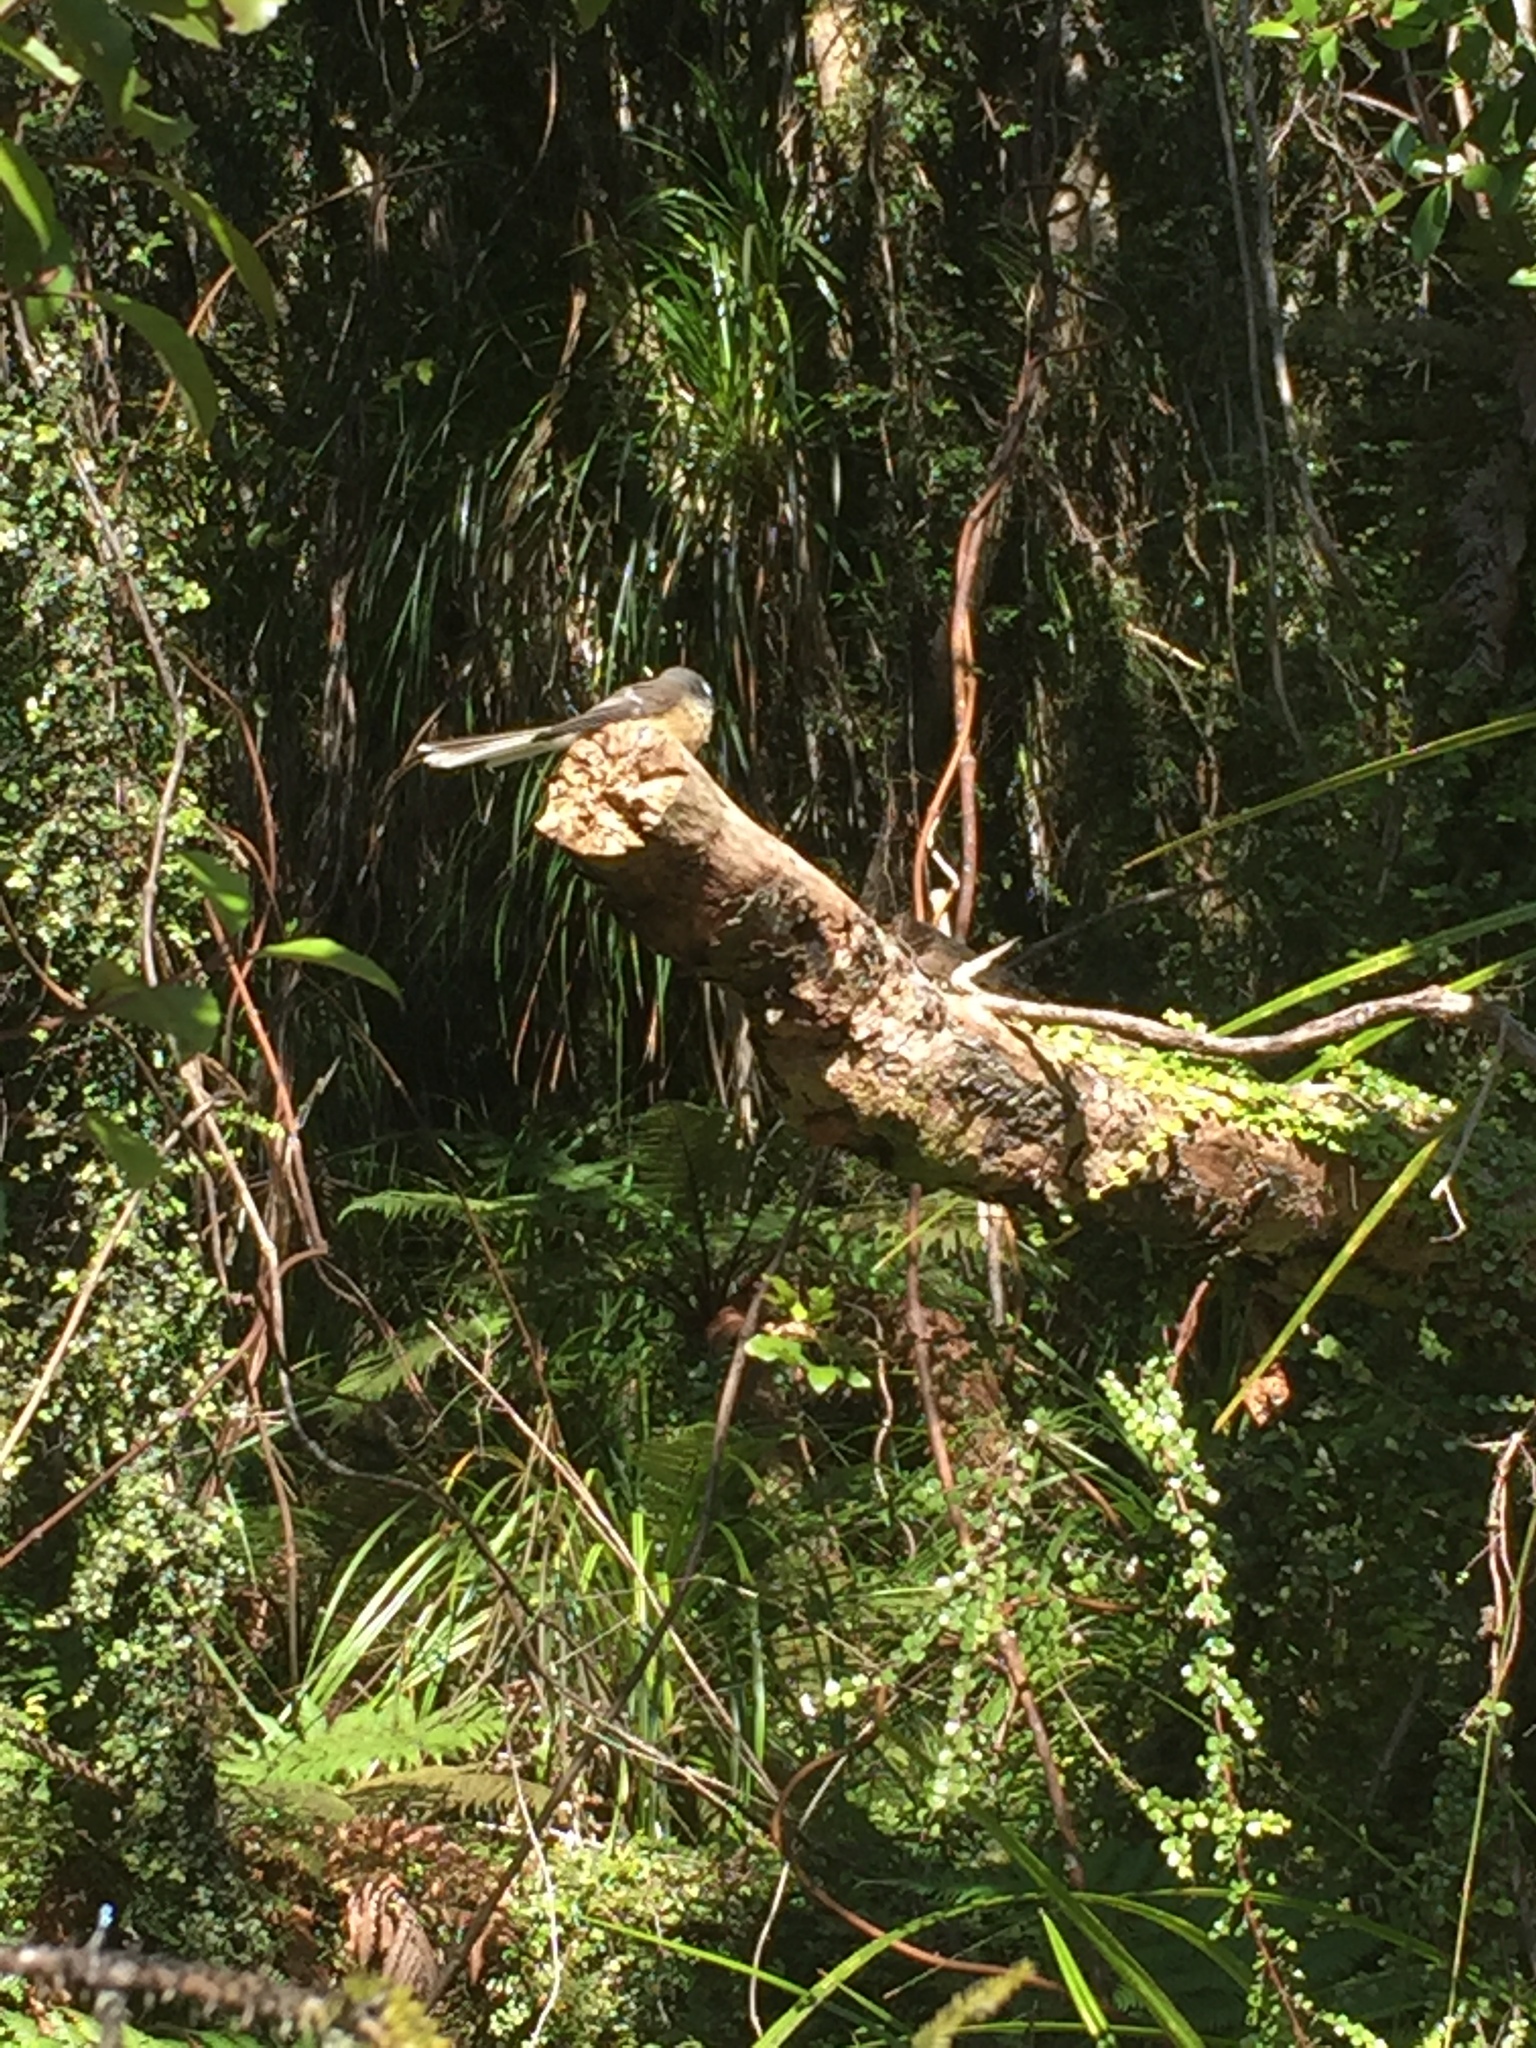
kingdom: Animalia
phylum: Chordata
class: Aves
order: Passeriformes
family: Rhipiduridae
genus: Rhipidura
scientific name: Rhipidura fuliginosa
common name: New zealand fantail
